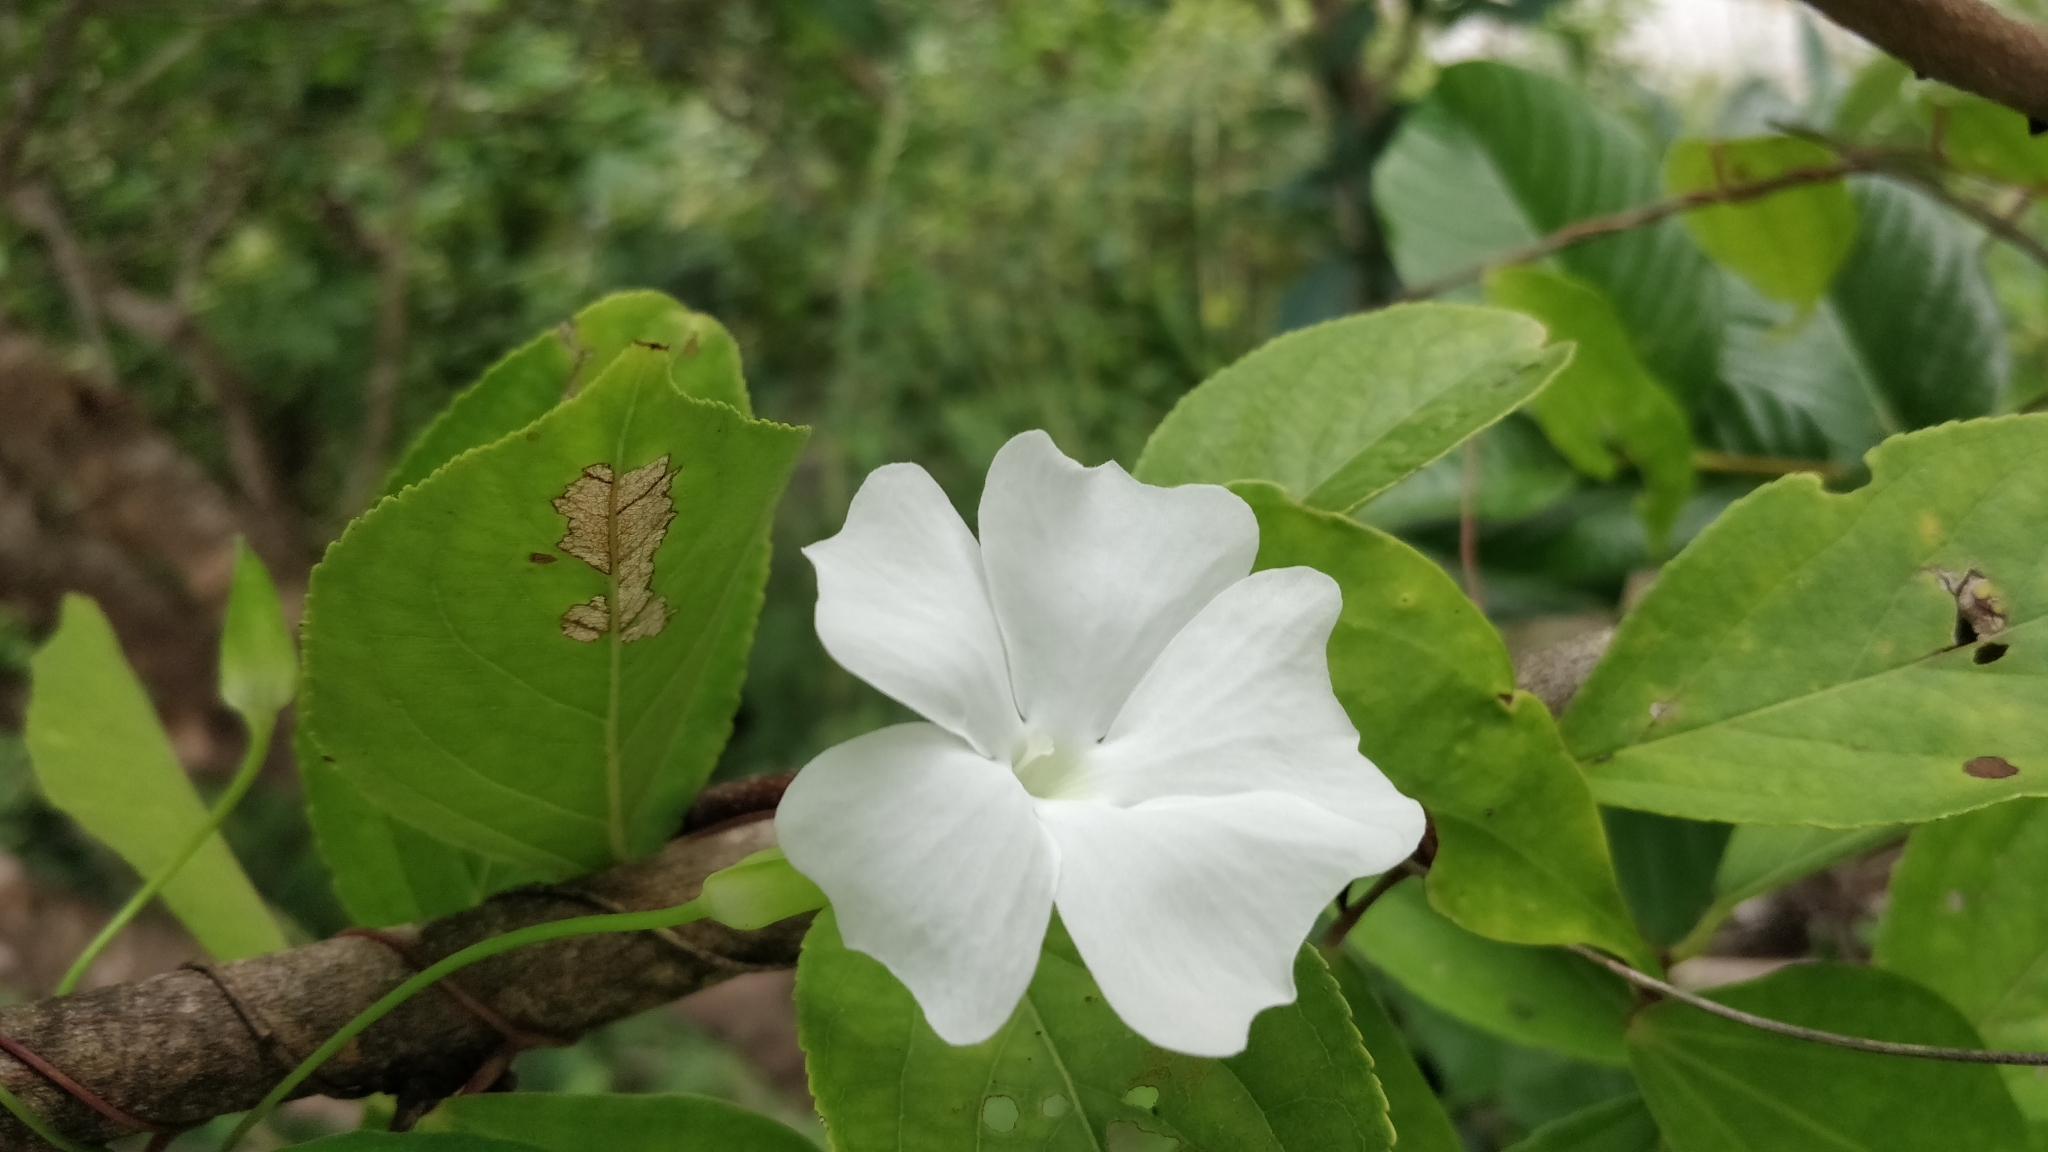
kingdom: Plantae
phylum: Tracheophyta
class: Magnoliopsida
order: Lamiales
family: Acanthaceae
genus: Thunbergia
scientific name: Thunbergia fragrans
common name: Whitelady
